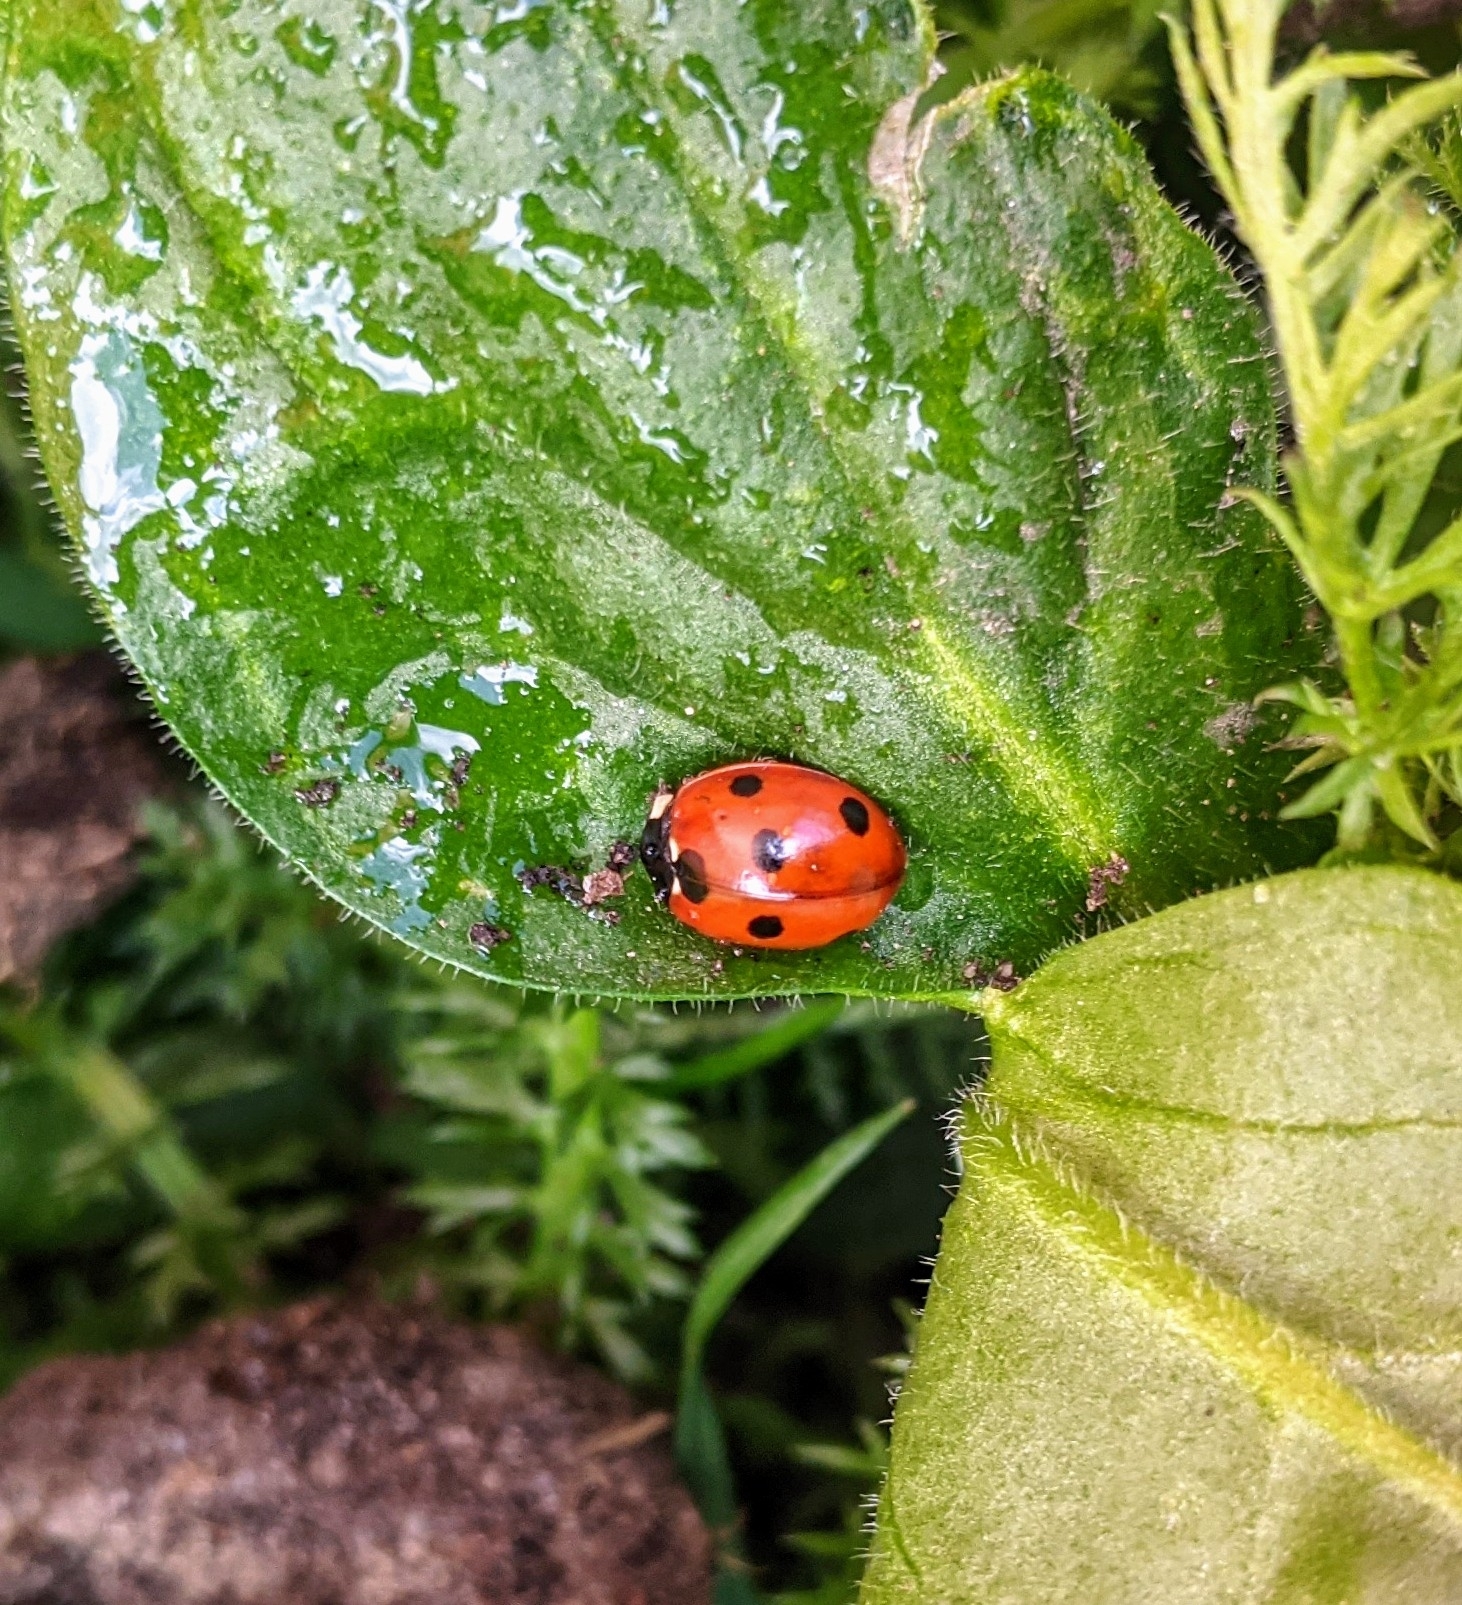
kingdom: Animalia
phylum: Arthropoda
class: Insecta
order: Coleoptera
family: Coccinellidae
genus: Coccinella
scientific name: Coccinella septempunctata
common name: Sevenspotted lady beetle
